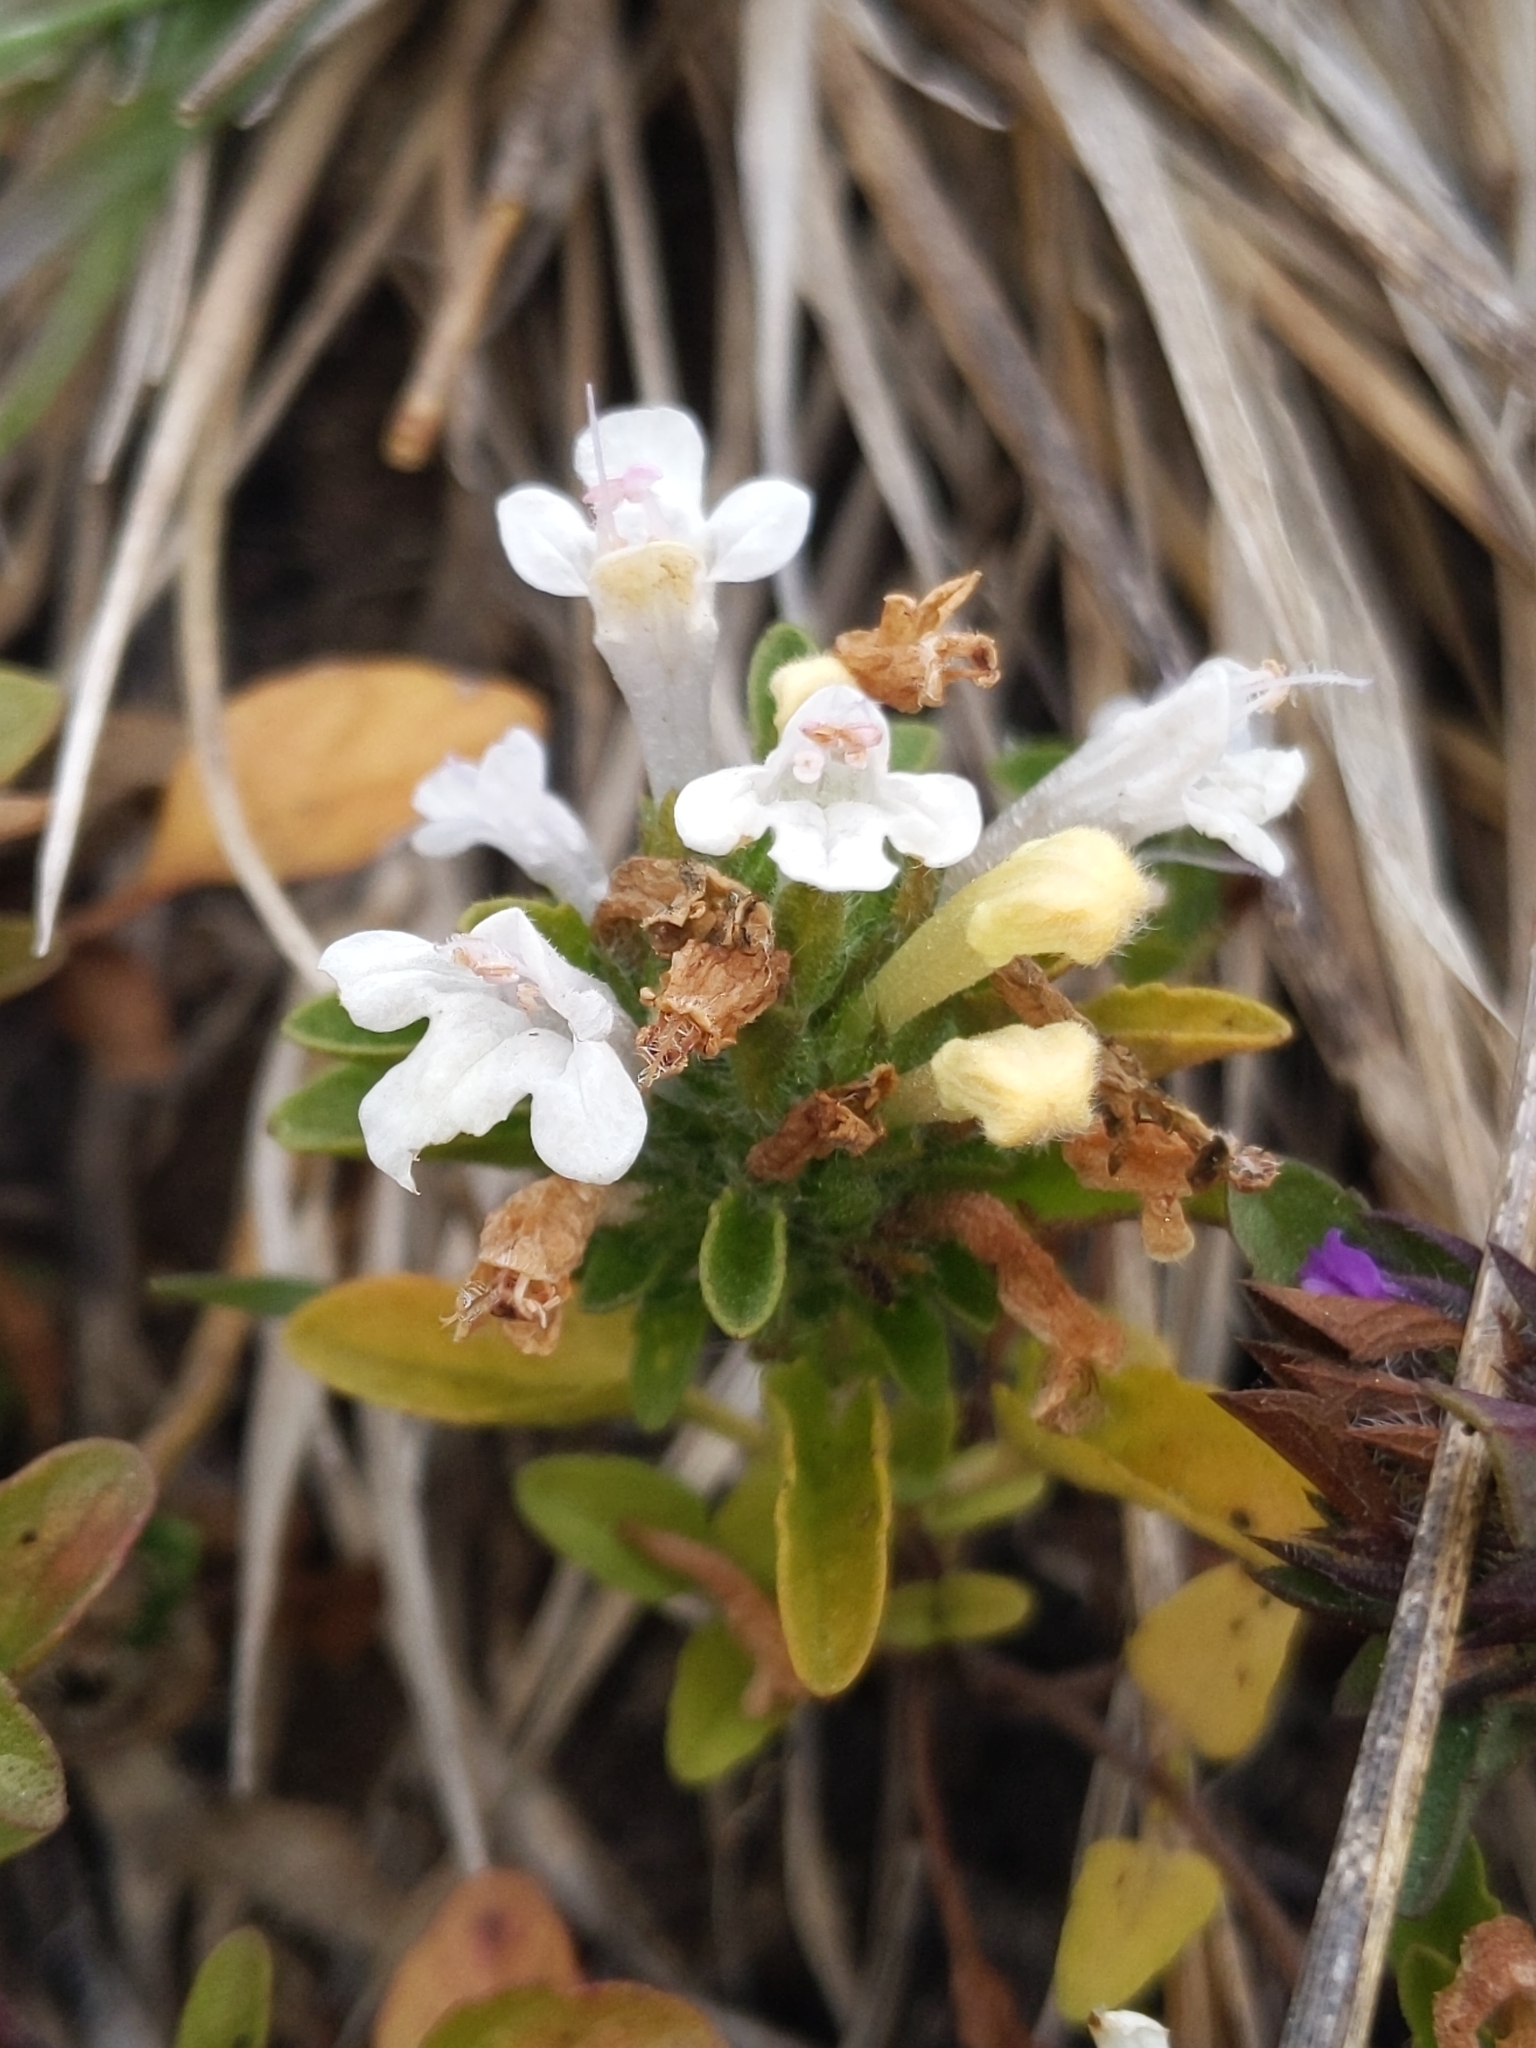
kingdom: Plantae
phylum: Tracheophyta
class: Magnoliopsida
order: Lamiales
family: Lamiaceae
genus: Pogogyne
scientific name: Pogogyne douglasii
